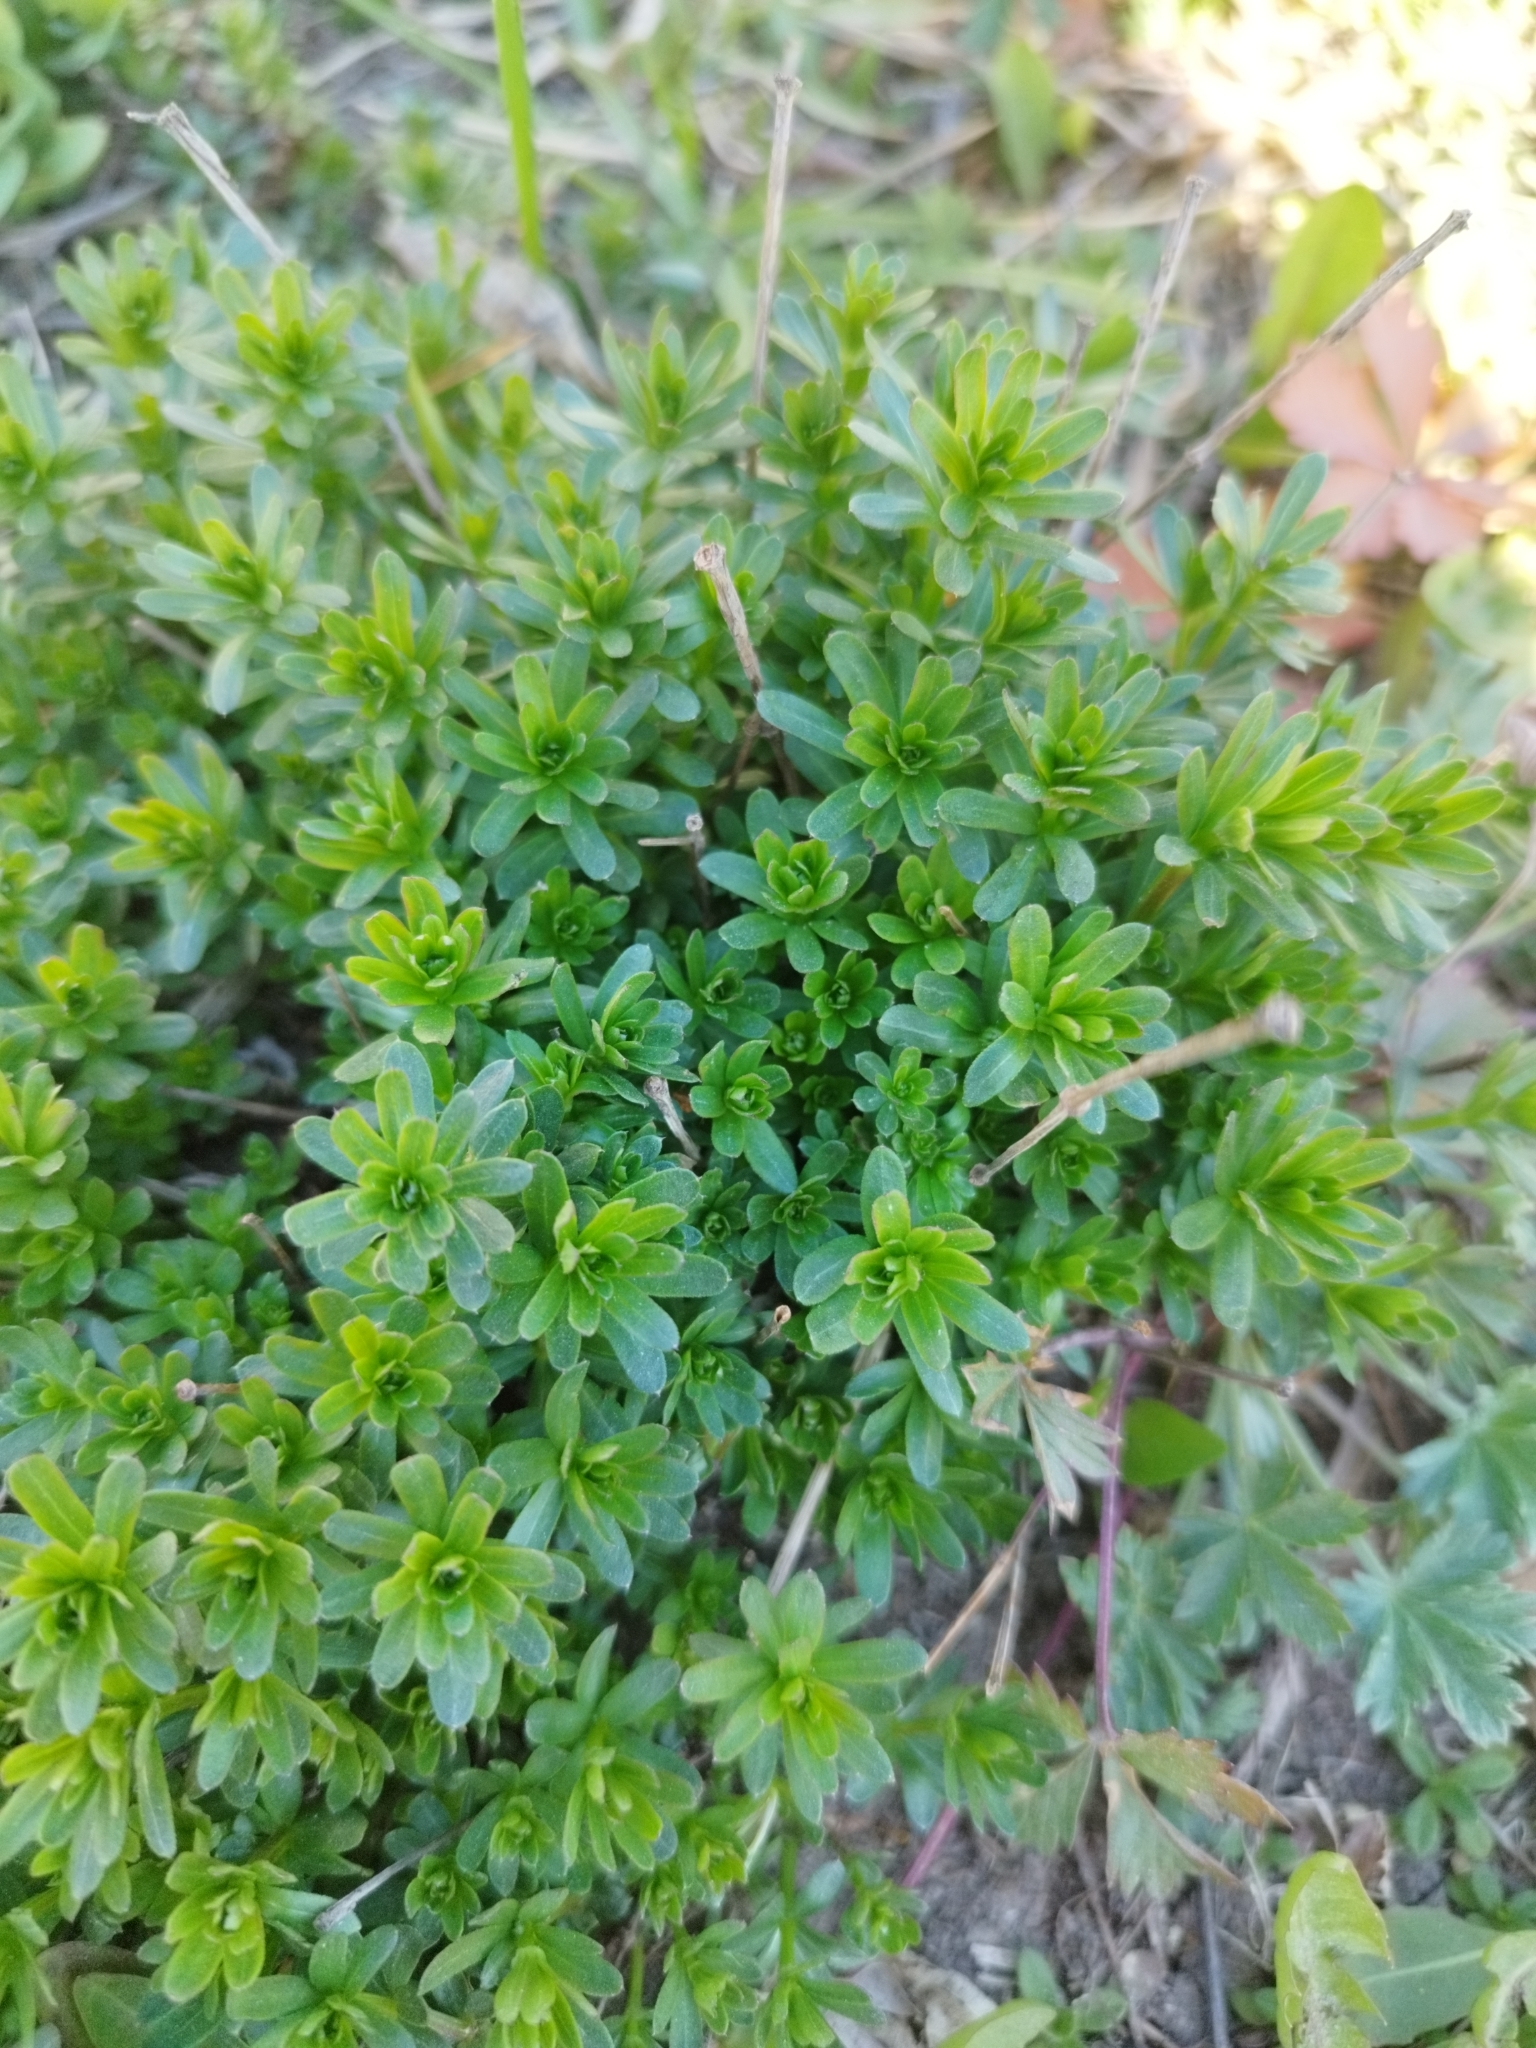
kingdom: Plantae
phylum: Tracheophyta
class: Magnoliopsida
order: Gentianales
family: Rubiaceae
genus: Galium
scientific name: Galium mollugo
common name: Hedge bedstraw
